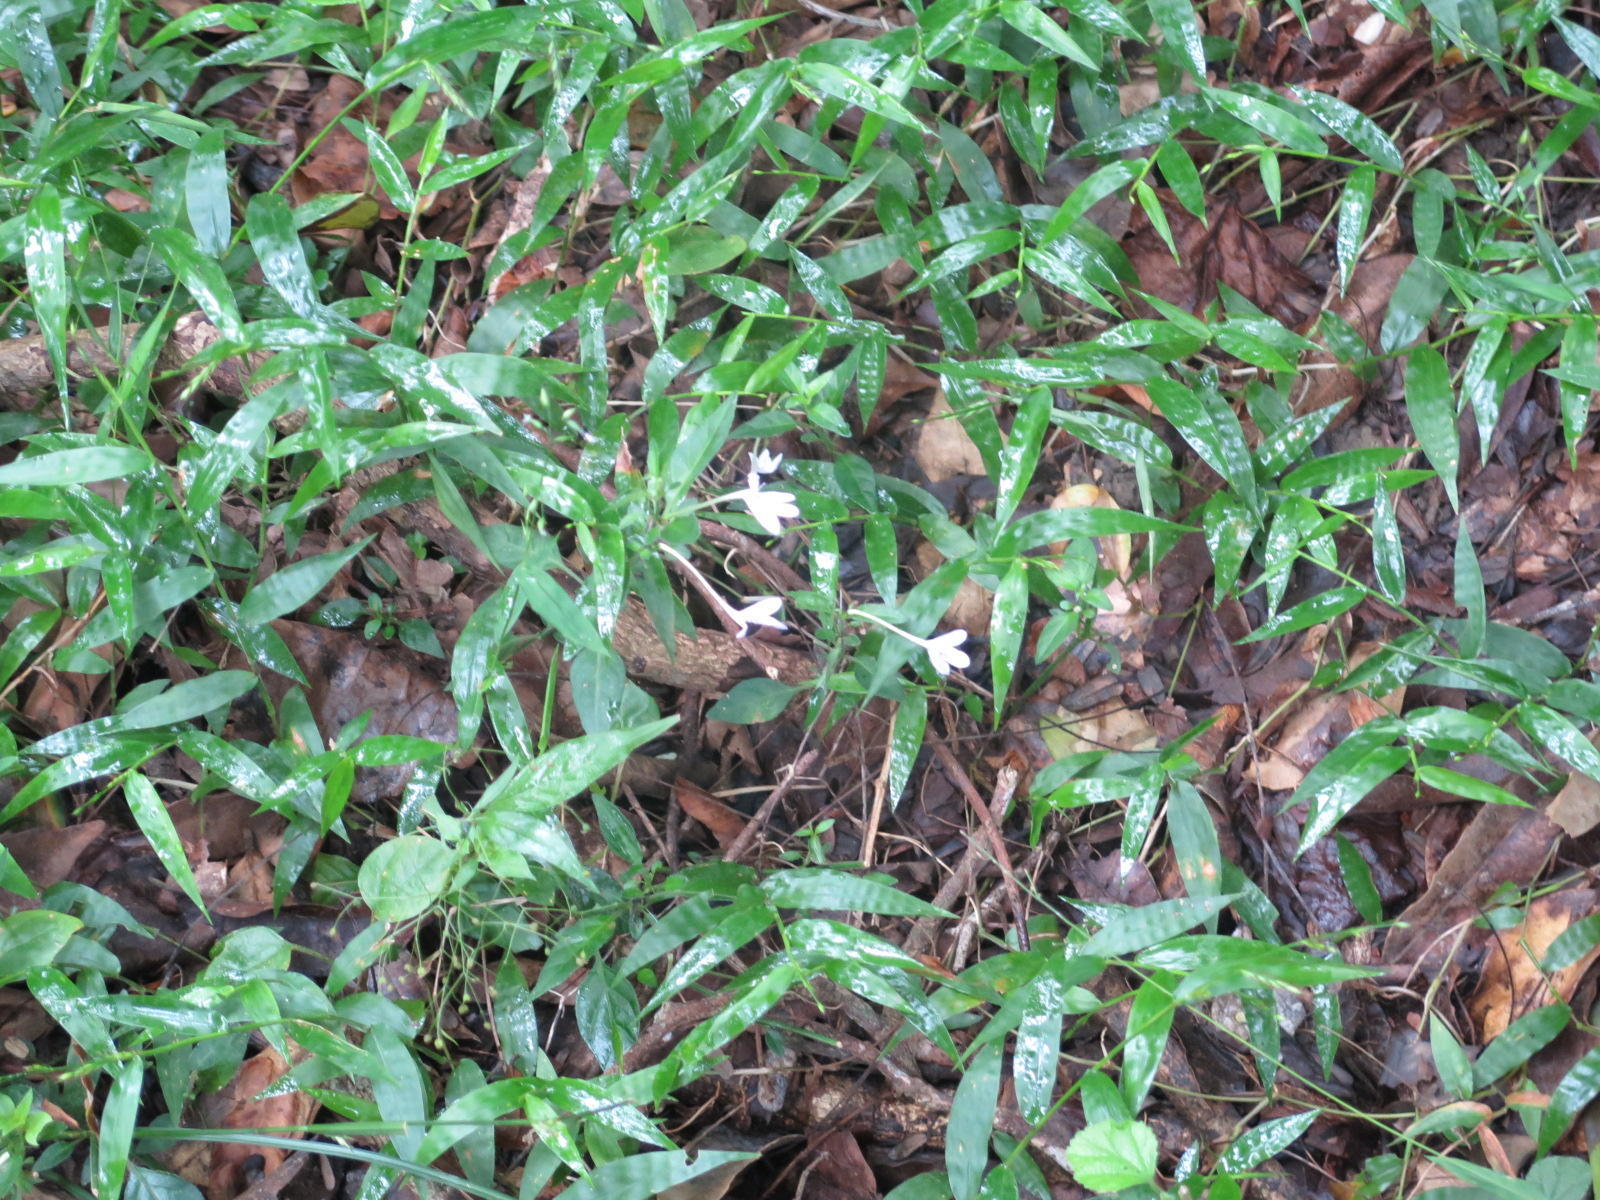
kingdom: Plantae
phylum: Tracheophyta
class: Magnoliopsida
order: Lamiales
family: Acanthaceae
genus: Rhinacanthus
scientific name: Rhinacanthus gracilis
